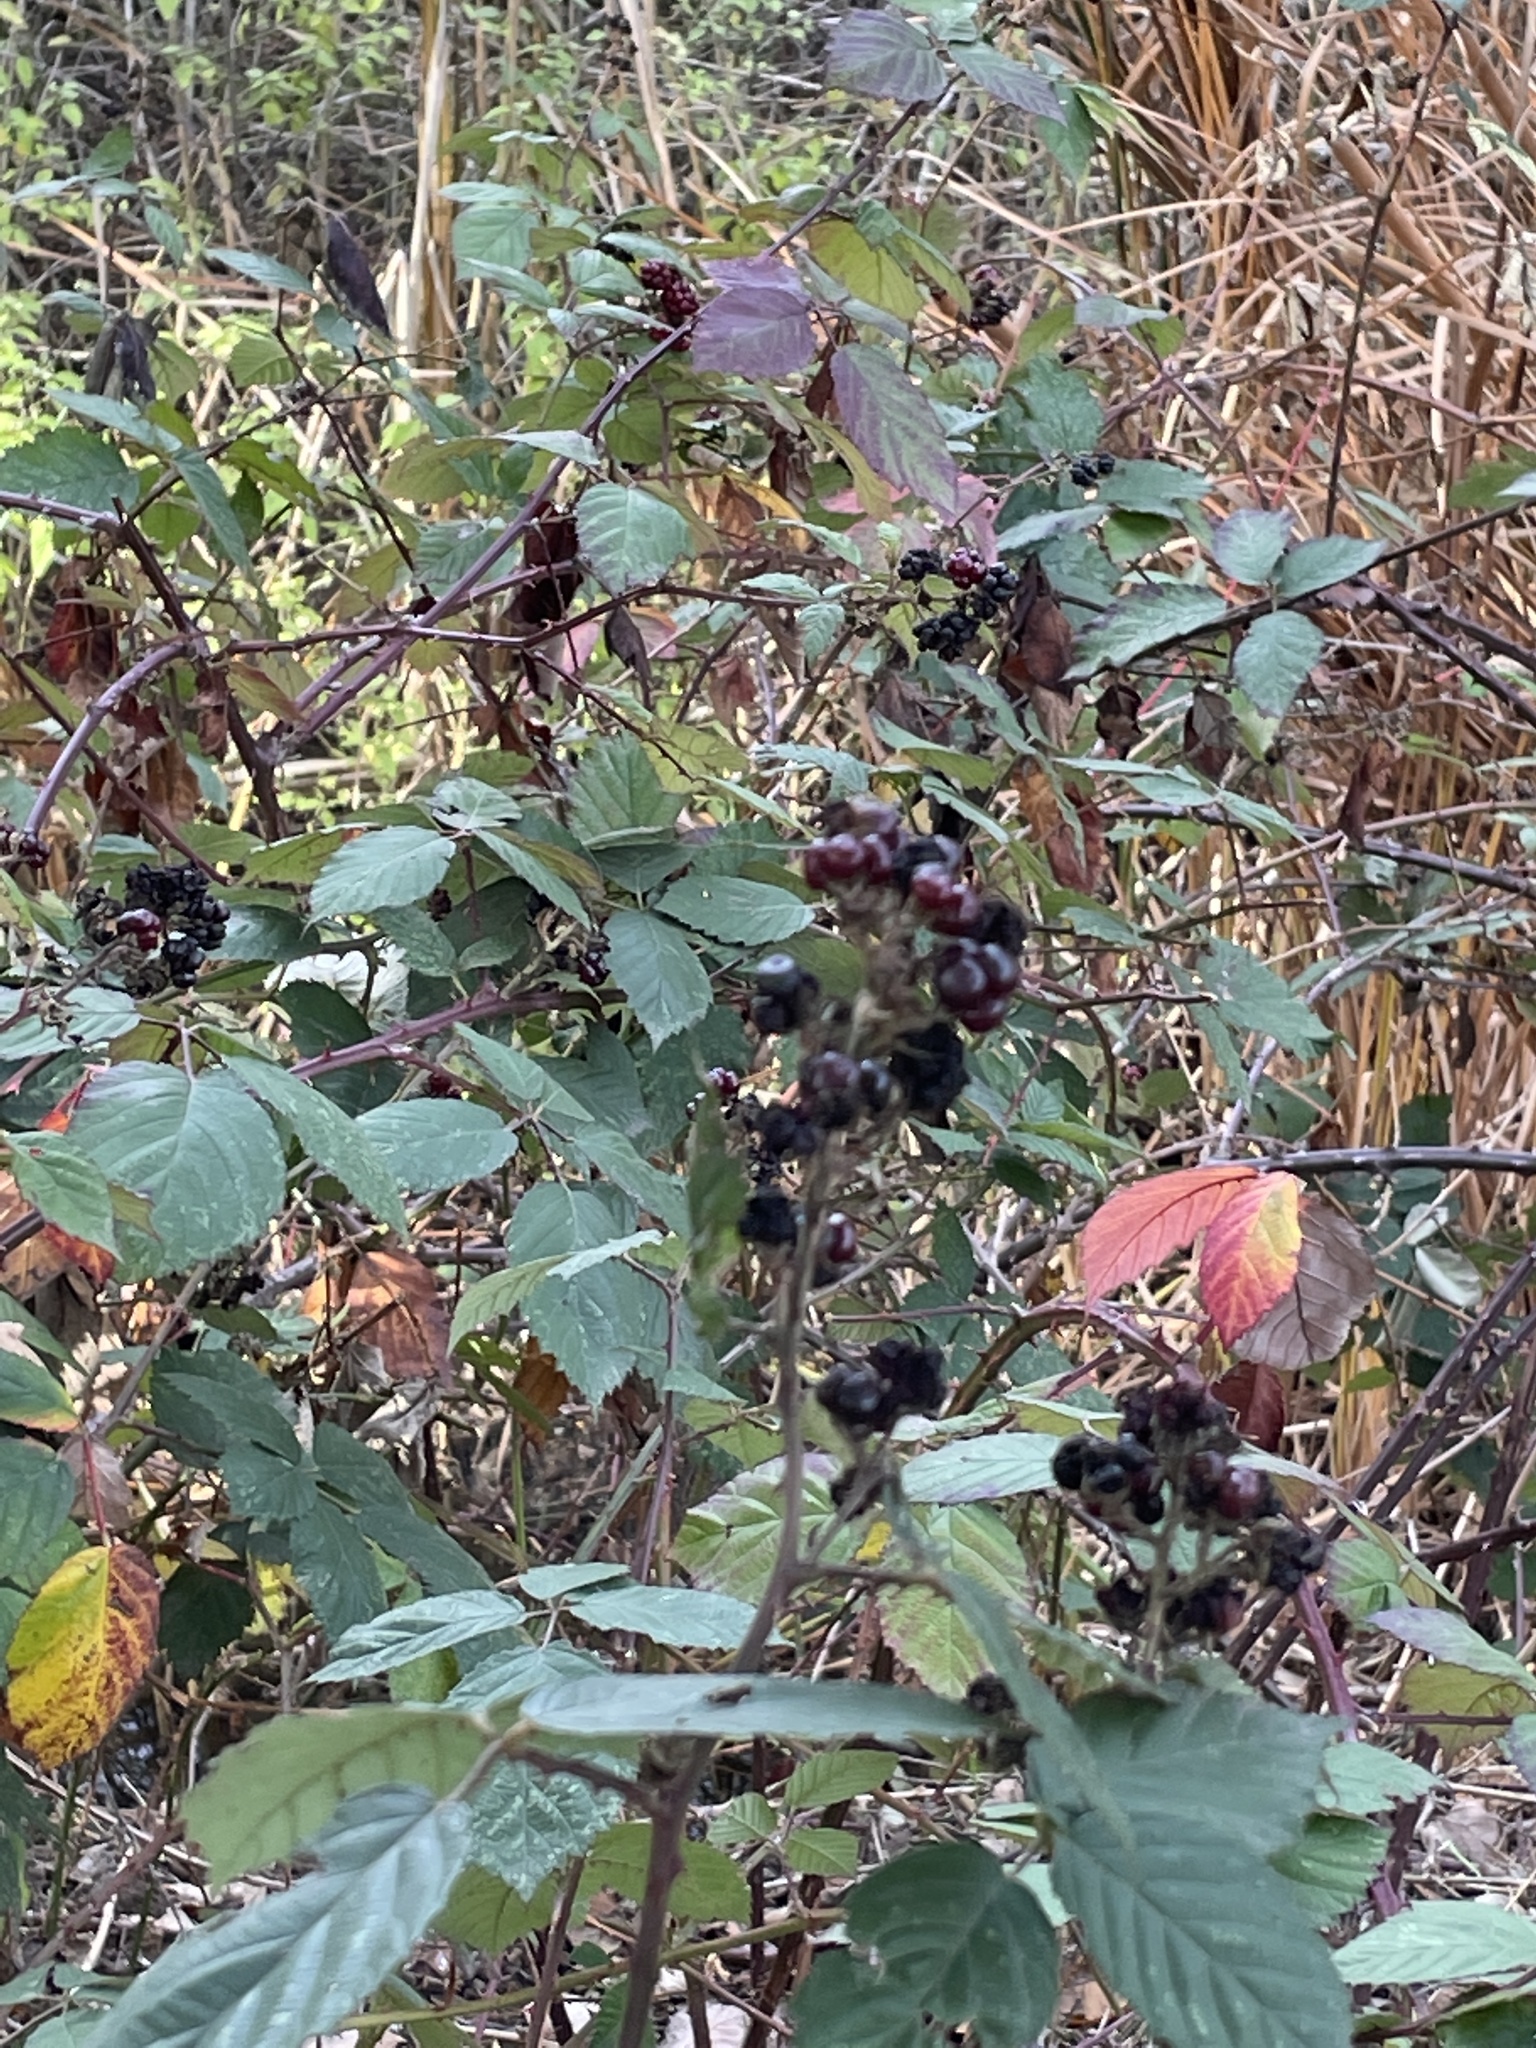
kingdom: Plantae
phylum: Tracheophyta
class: Magnoliopsida
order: Rosales
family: Rosaceae
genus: Rubus
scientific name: Rubus armeniacus
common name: Himalayan blackberry
